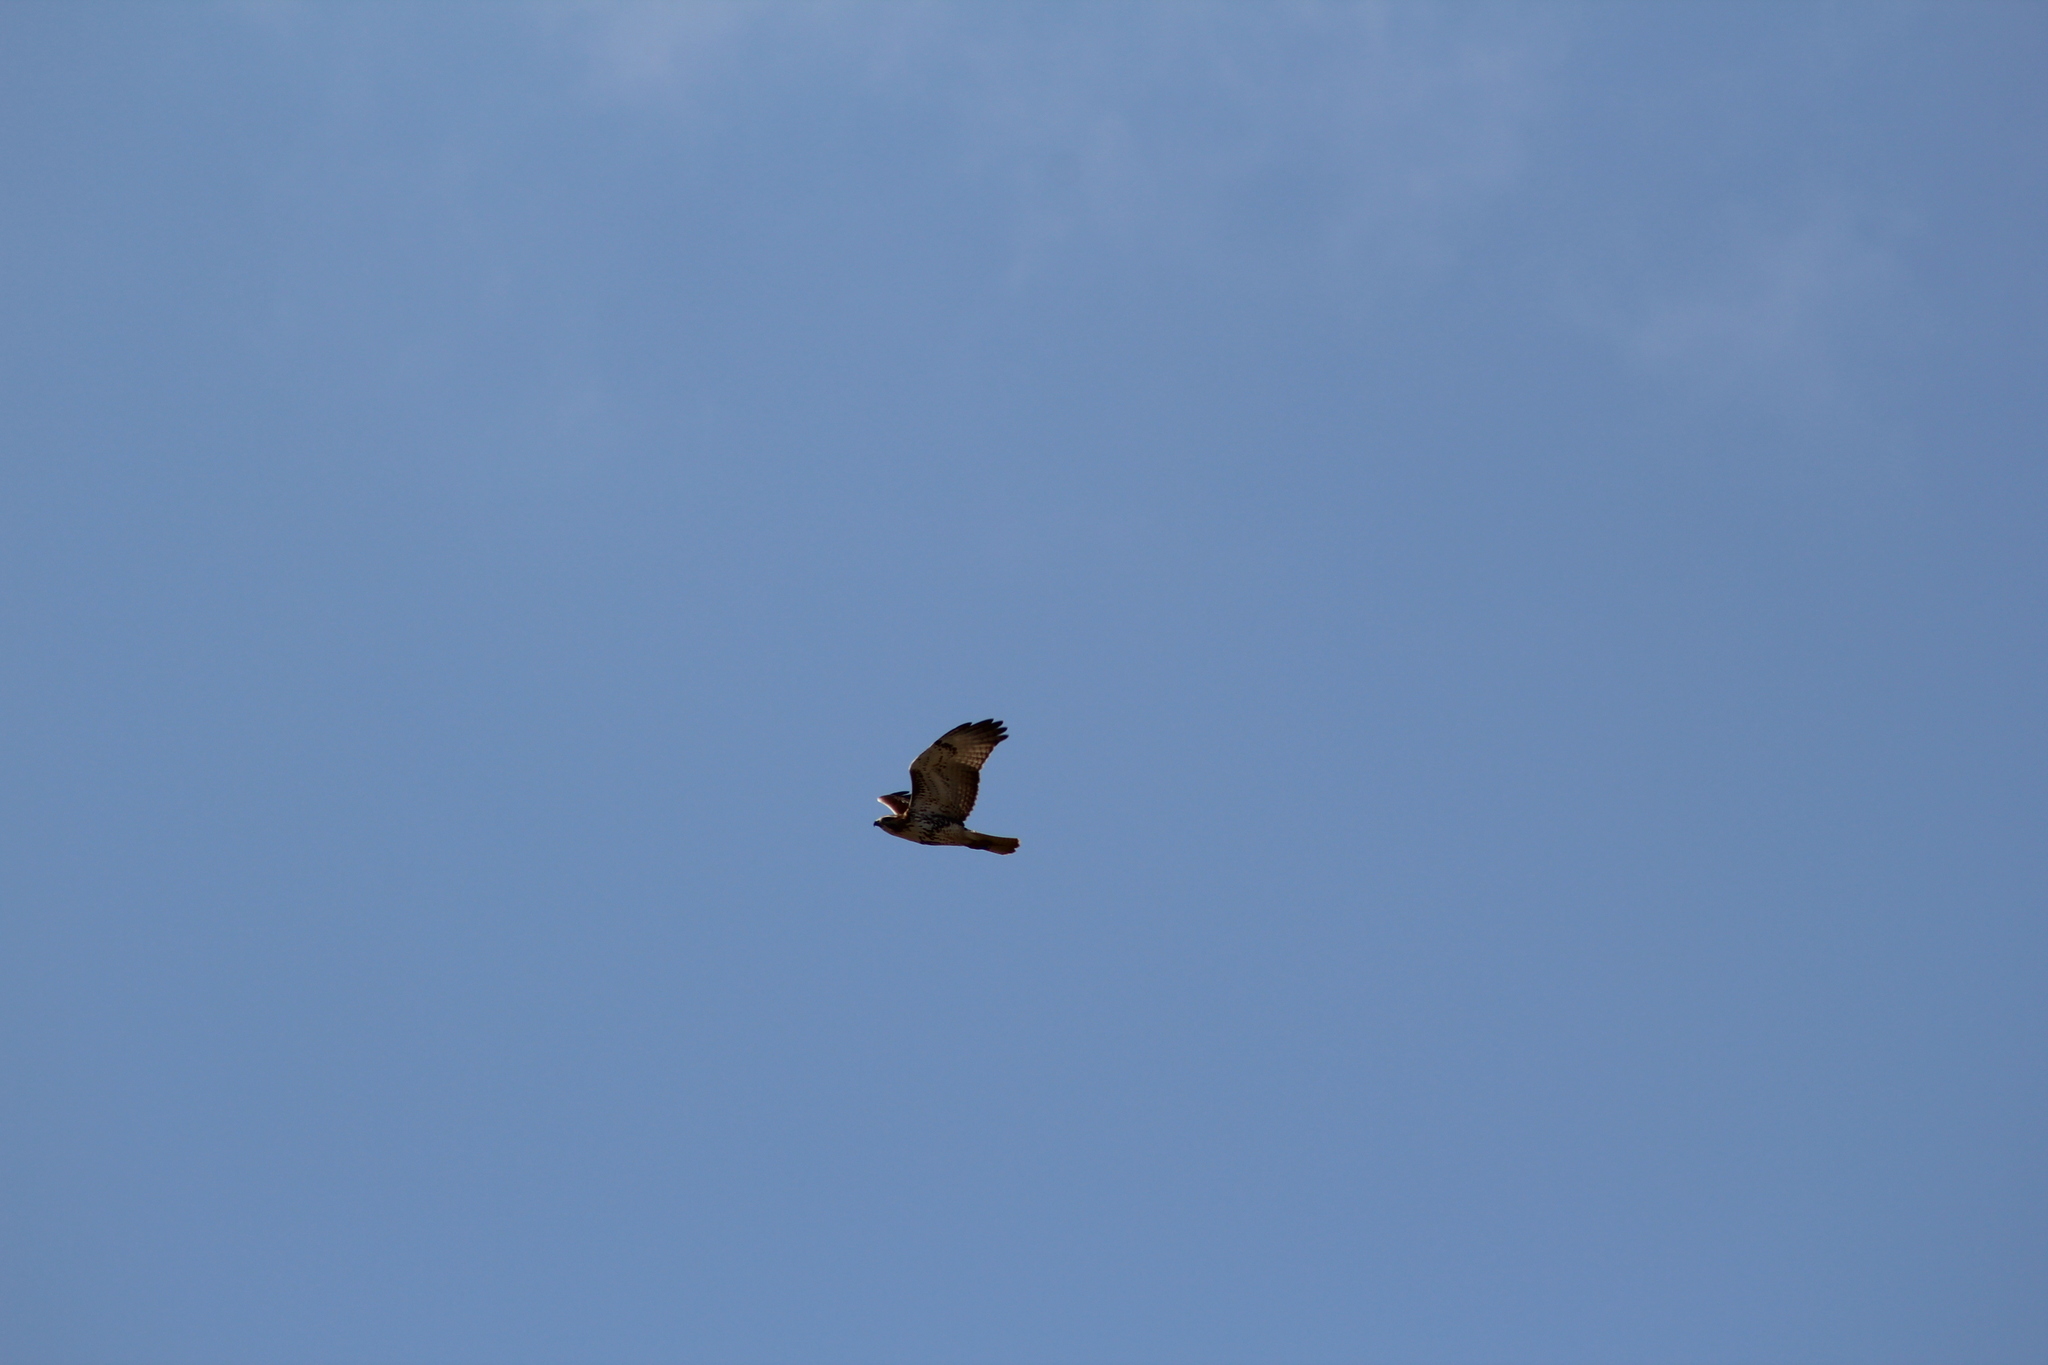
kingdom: Animalia
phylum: Chordata
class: Aves
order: Accipitriformes
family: Accipitridae
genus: Buteo
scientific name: Buteo jamaicensis
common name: Red-tailed hawk
